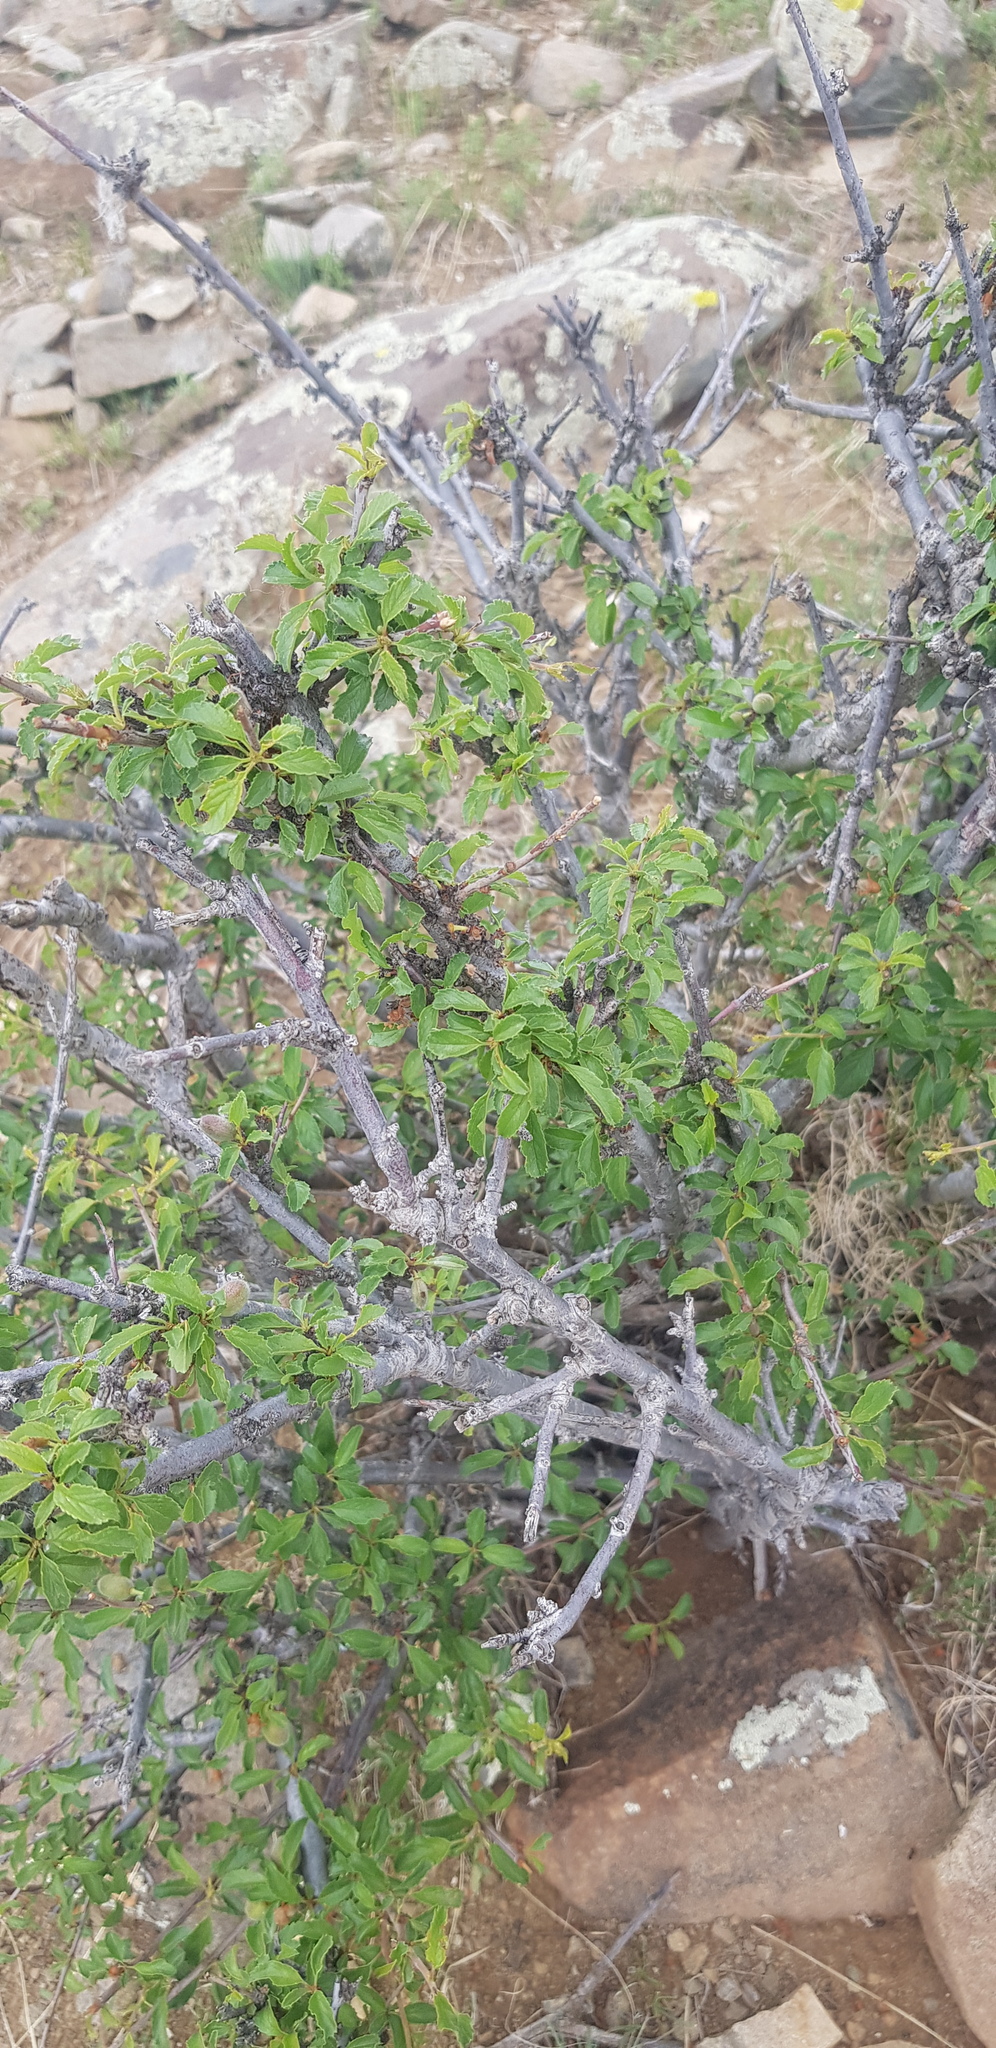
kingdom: Plantae
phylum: Tracheophyta
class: Magnoliopsida
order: Rosales
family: Rosaceae
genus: Prunus
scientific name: Prunus pedunculata
